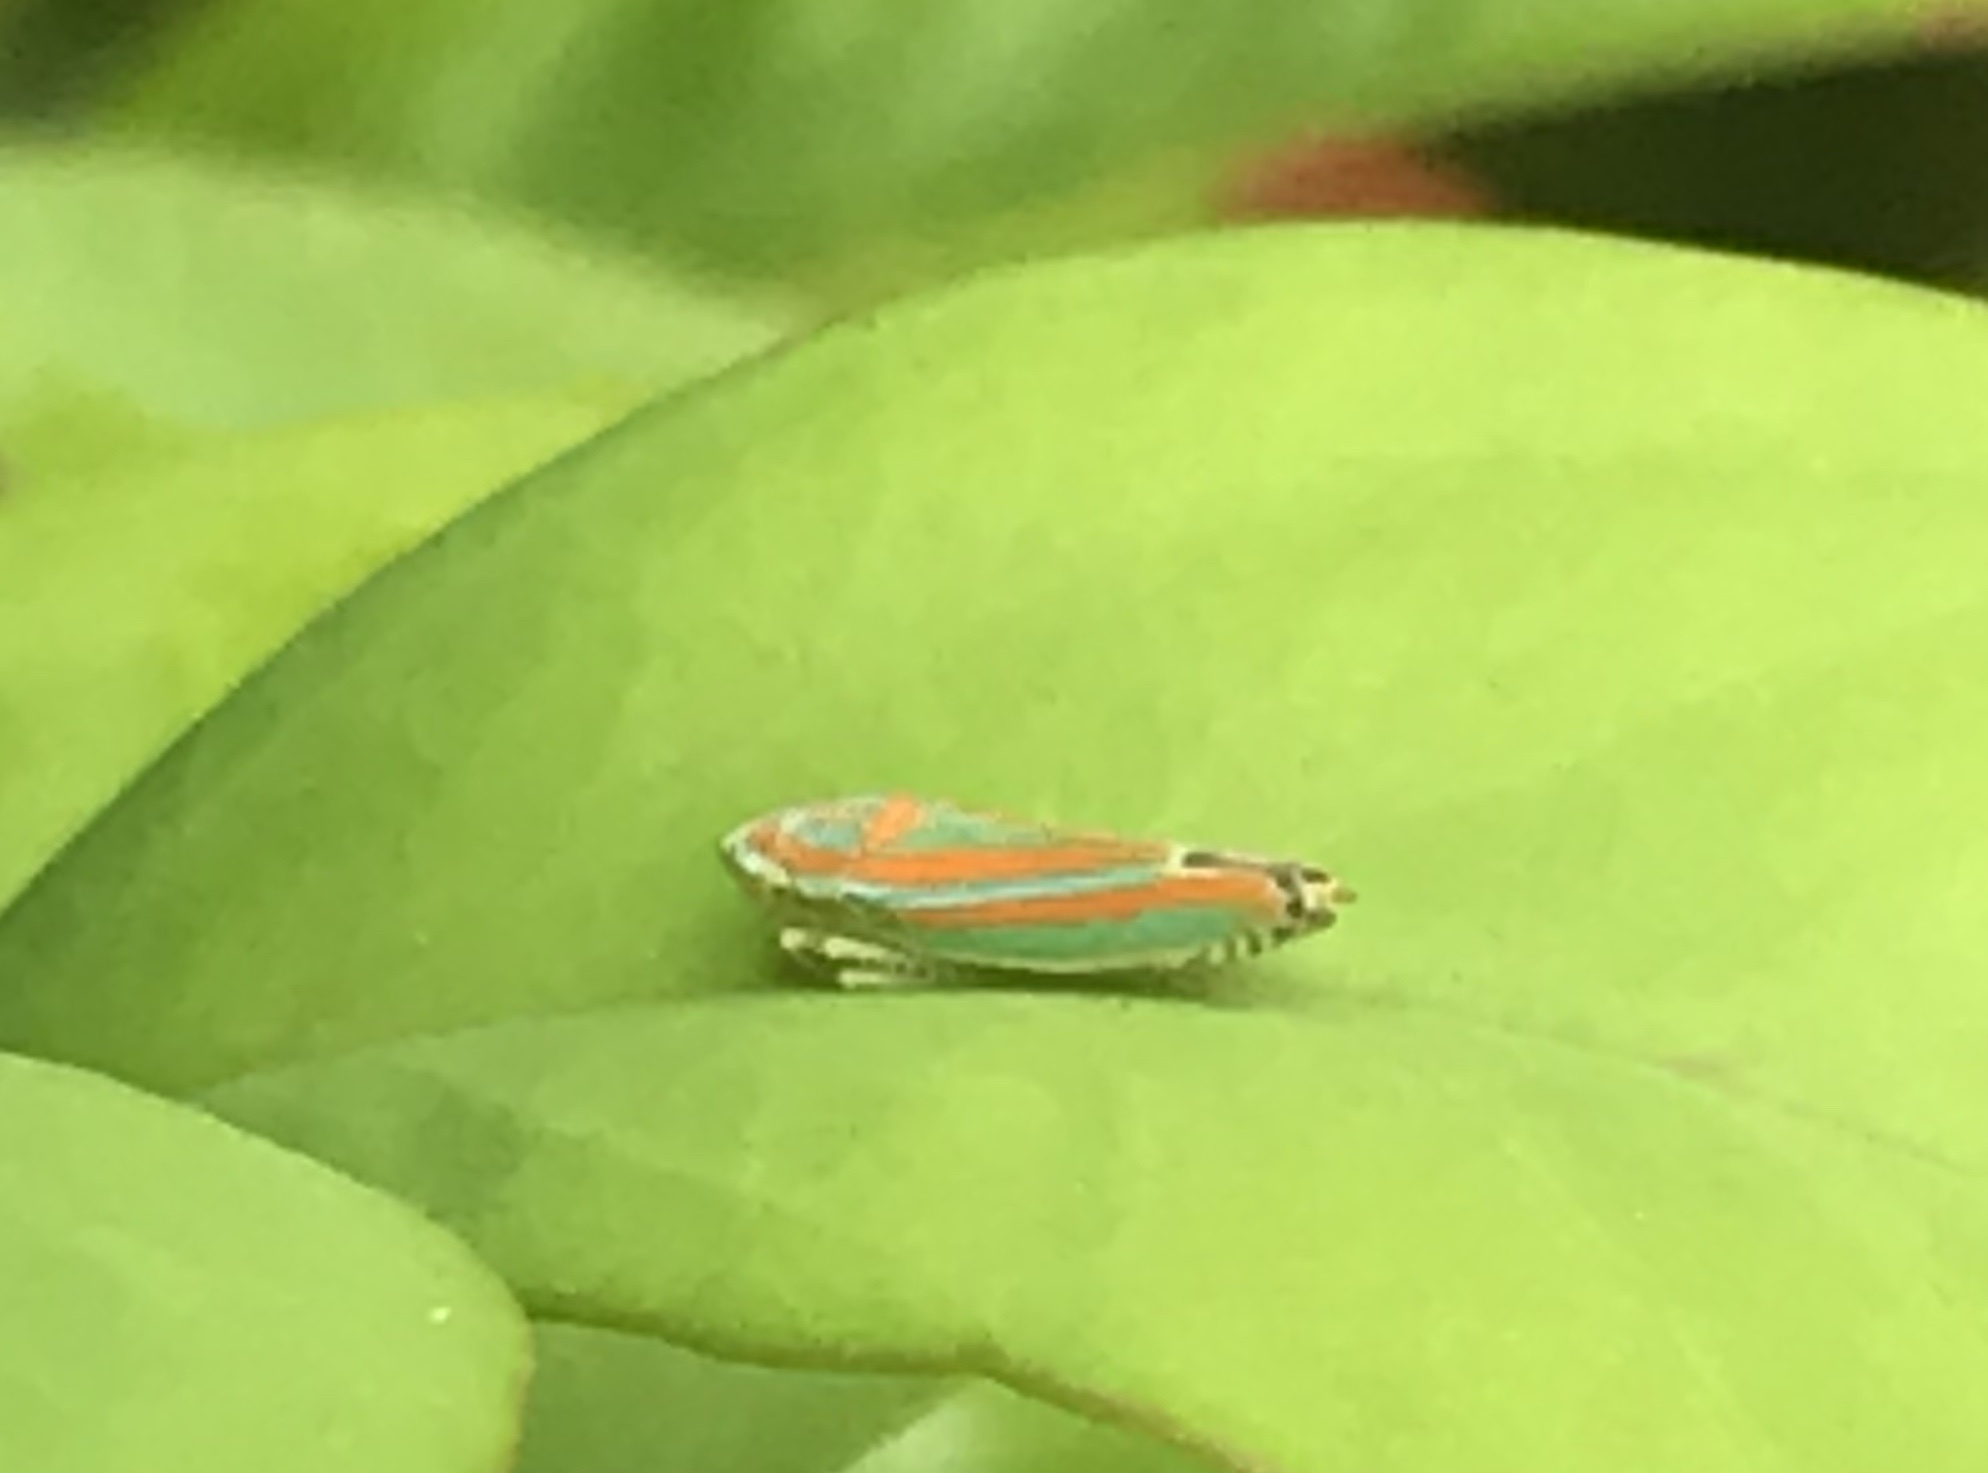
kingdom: Animalia
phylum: Arthropoda
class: Insecta
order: Hemiptera
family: Cicadellidae
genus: Graphocephala
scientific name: Graphocephala versuta
